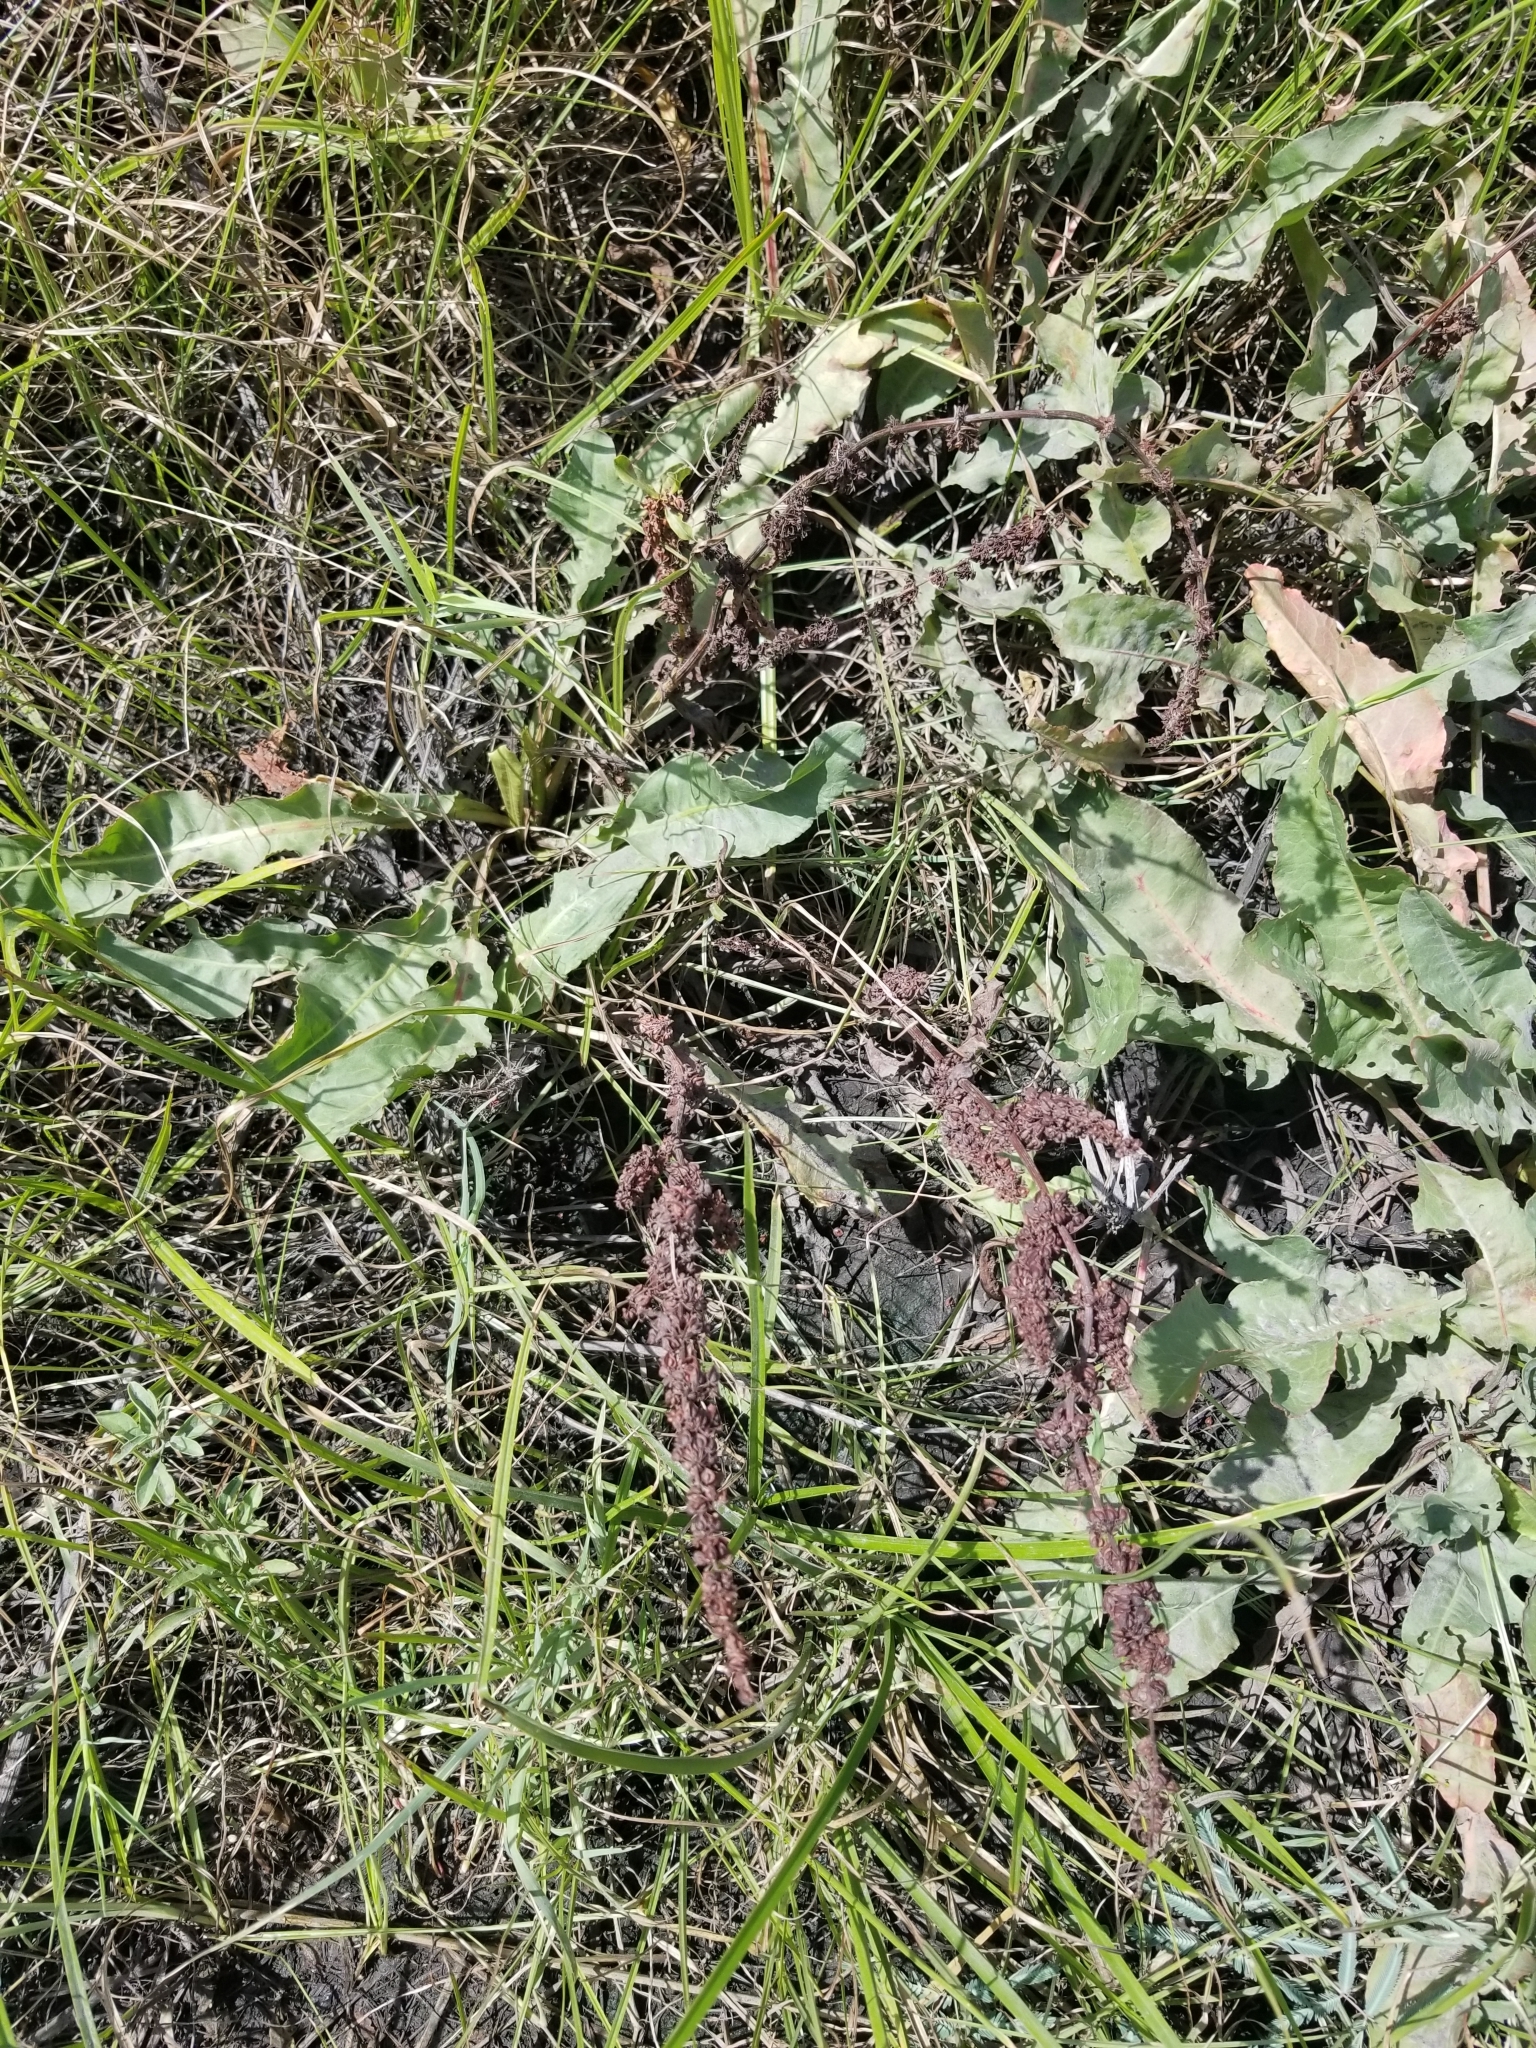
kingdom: Plantae
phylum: Tracheophyta
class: Magnoliopsida
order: Caryophyllales
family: Polygonaceae
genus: Rumex
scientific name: Rumex crispus
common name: Curled dock
